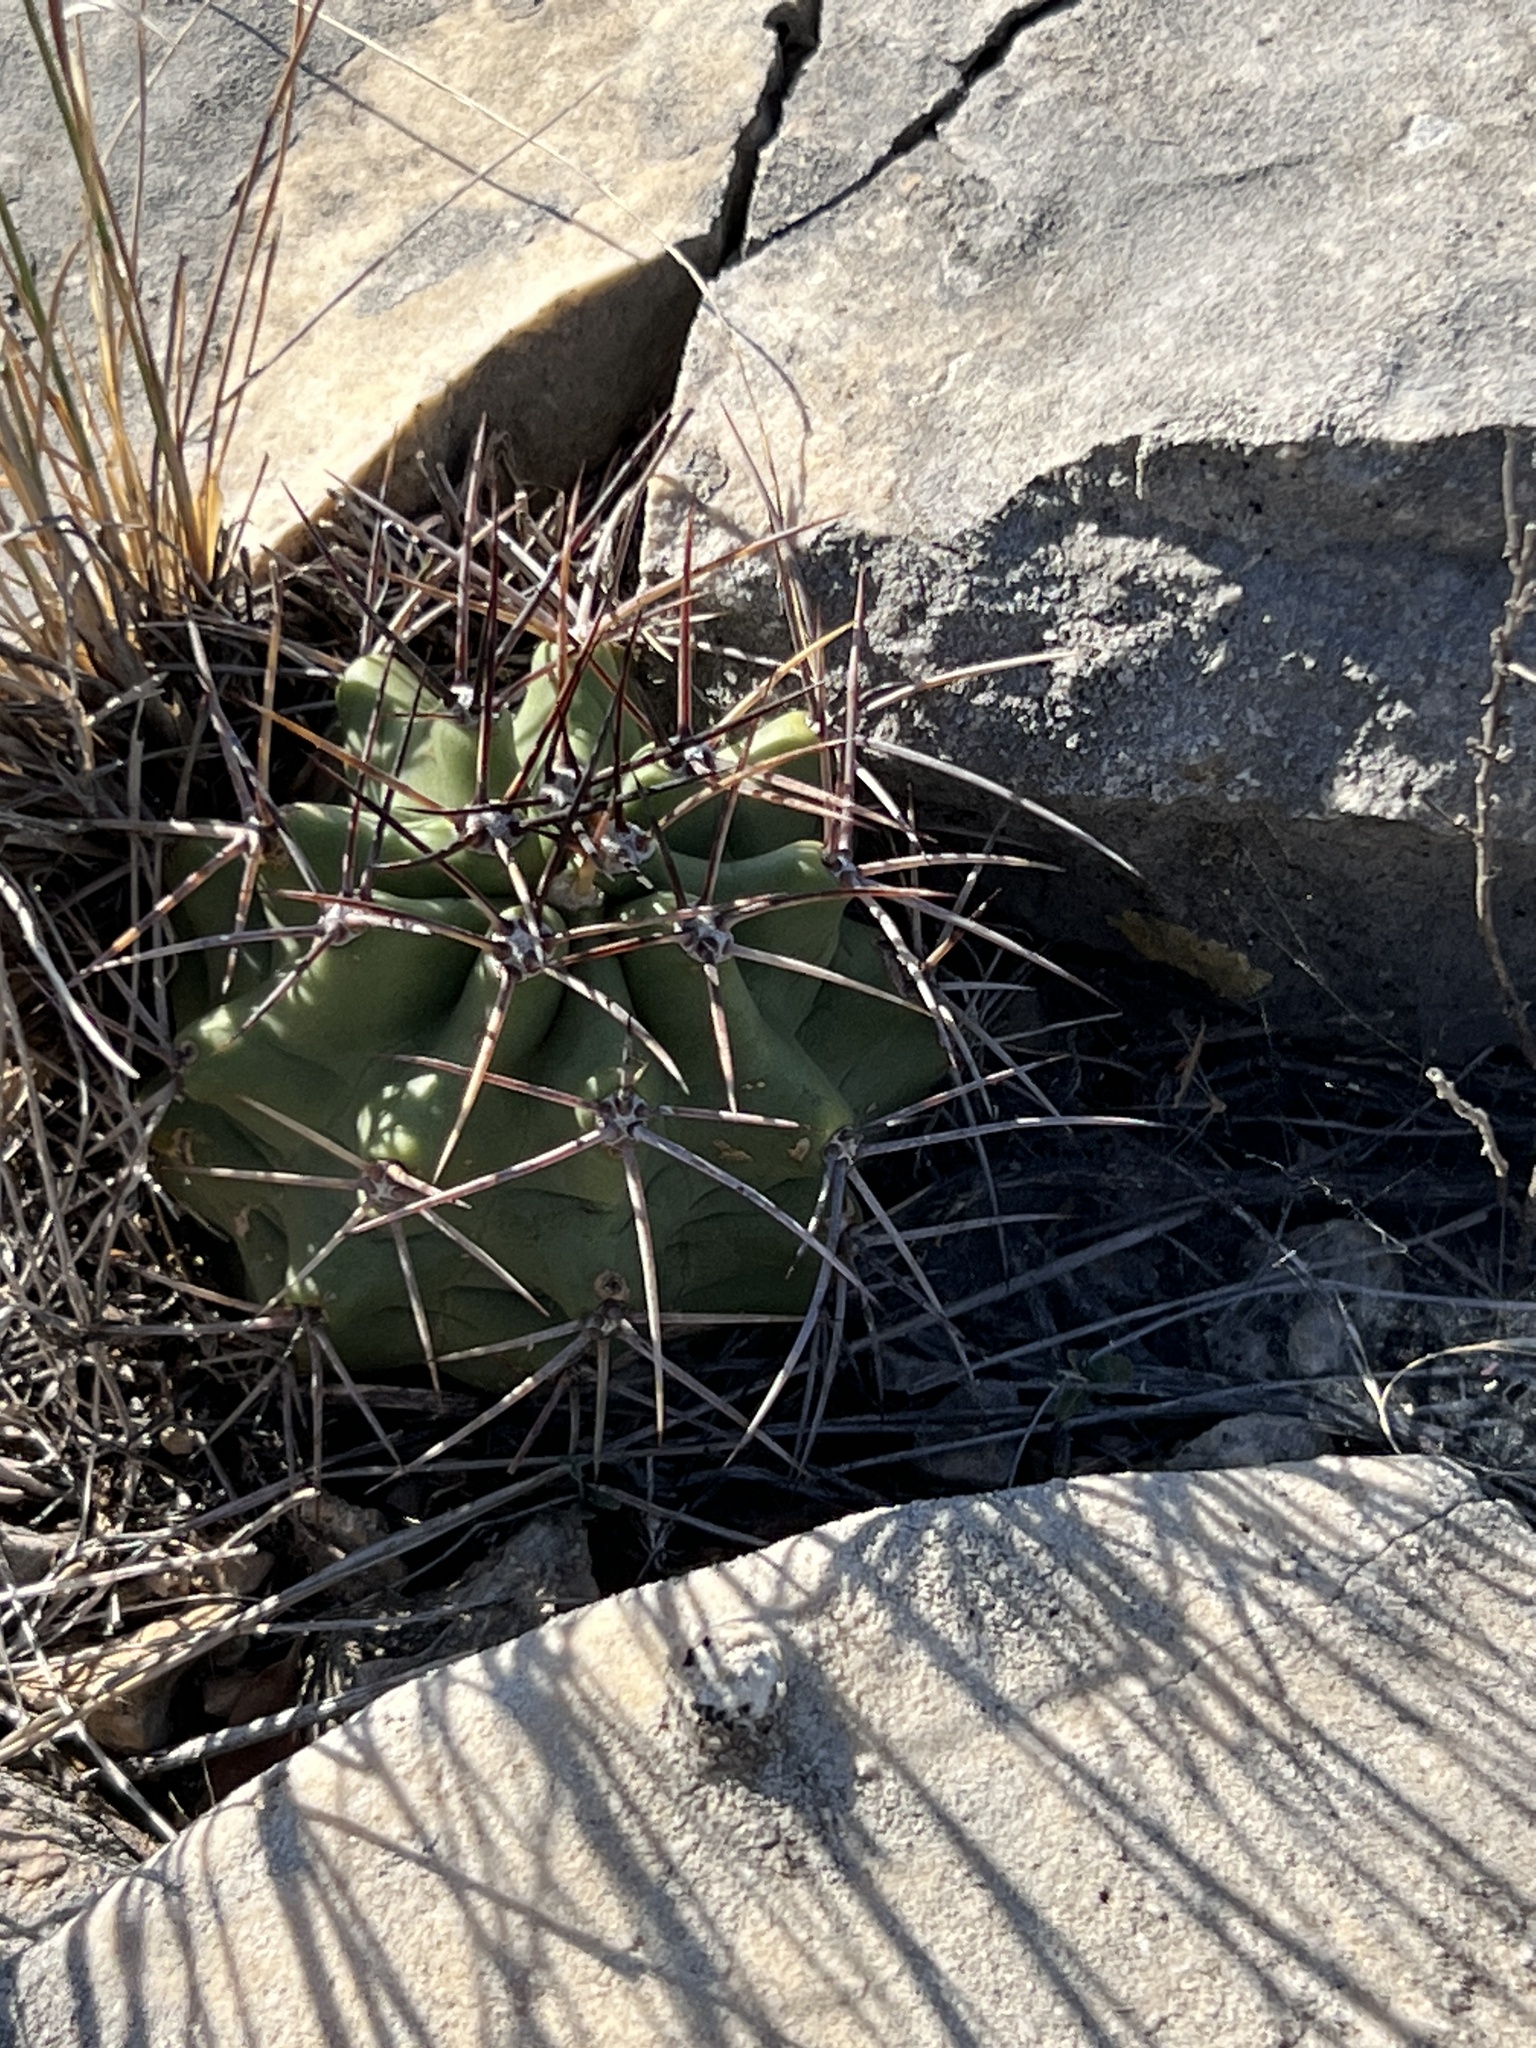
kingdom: Plantae
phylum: Tracheophyta
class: Magnoliopsida
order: Caryophyllales
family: Cactaceae
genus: Echinocereus
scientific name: Echinocereus coccineus
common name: Scarlet hedgehog cactus
